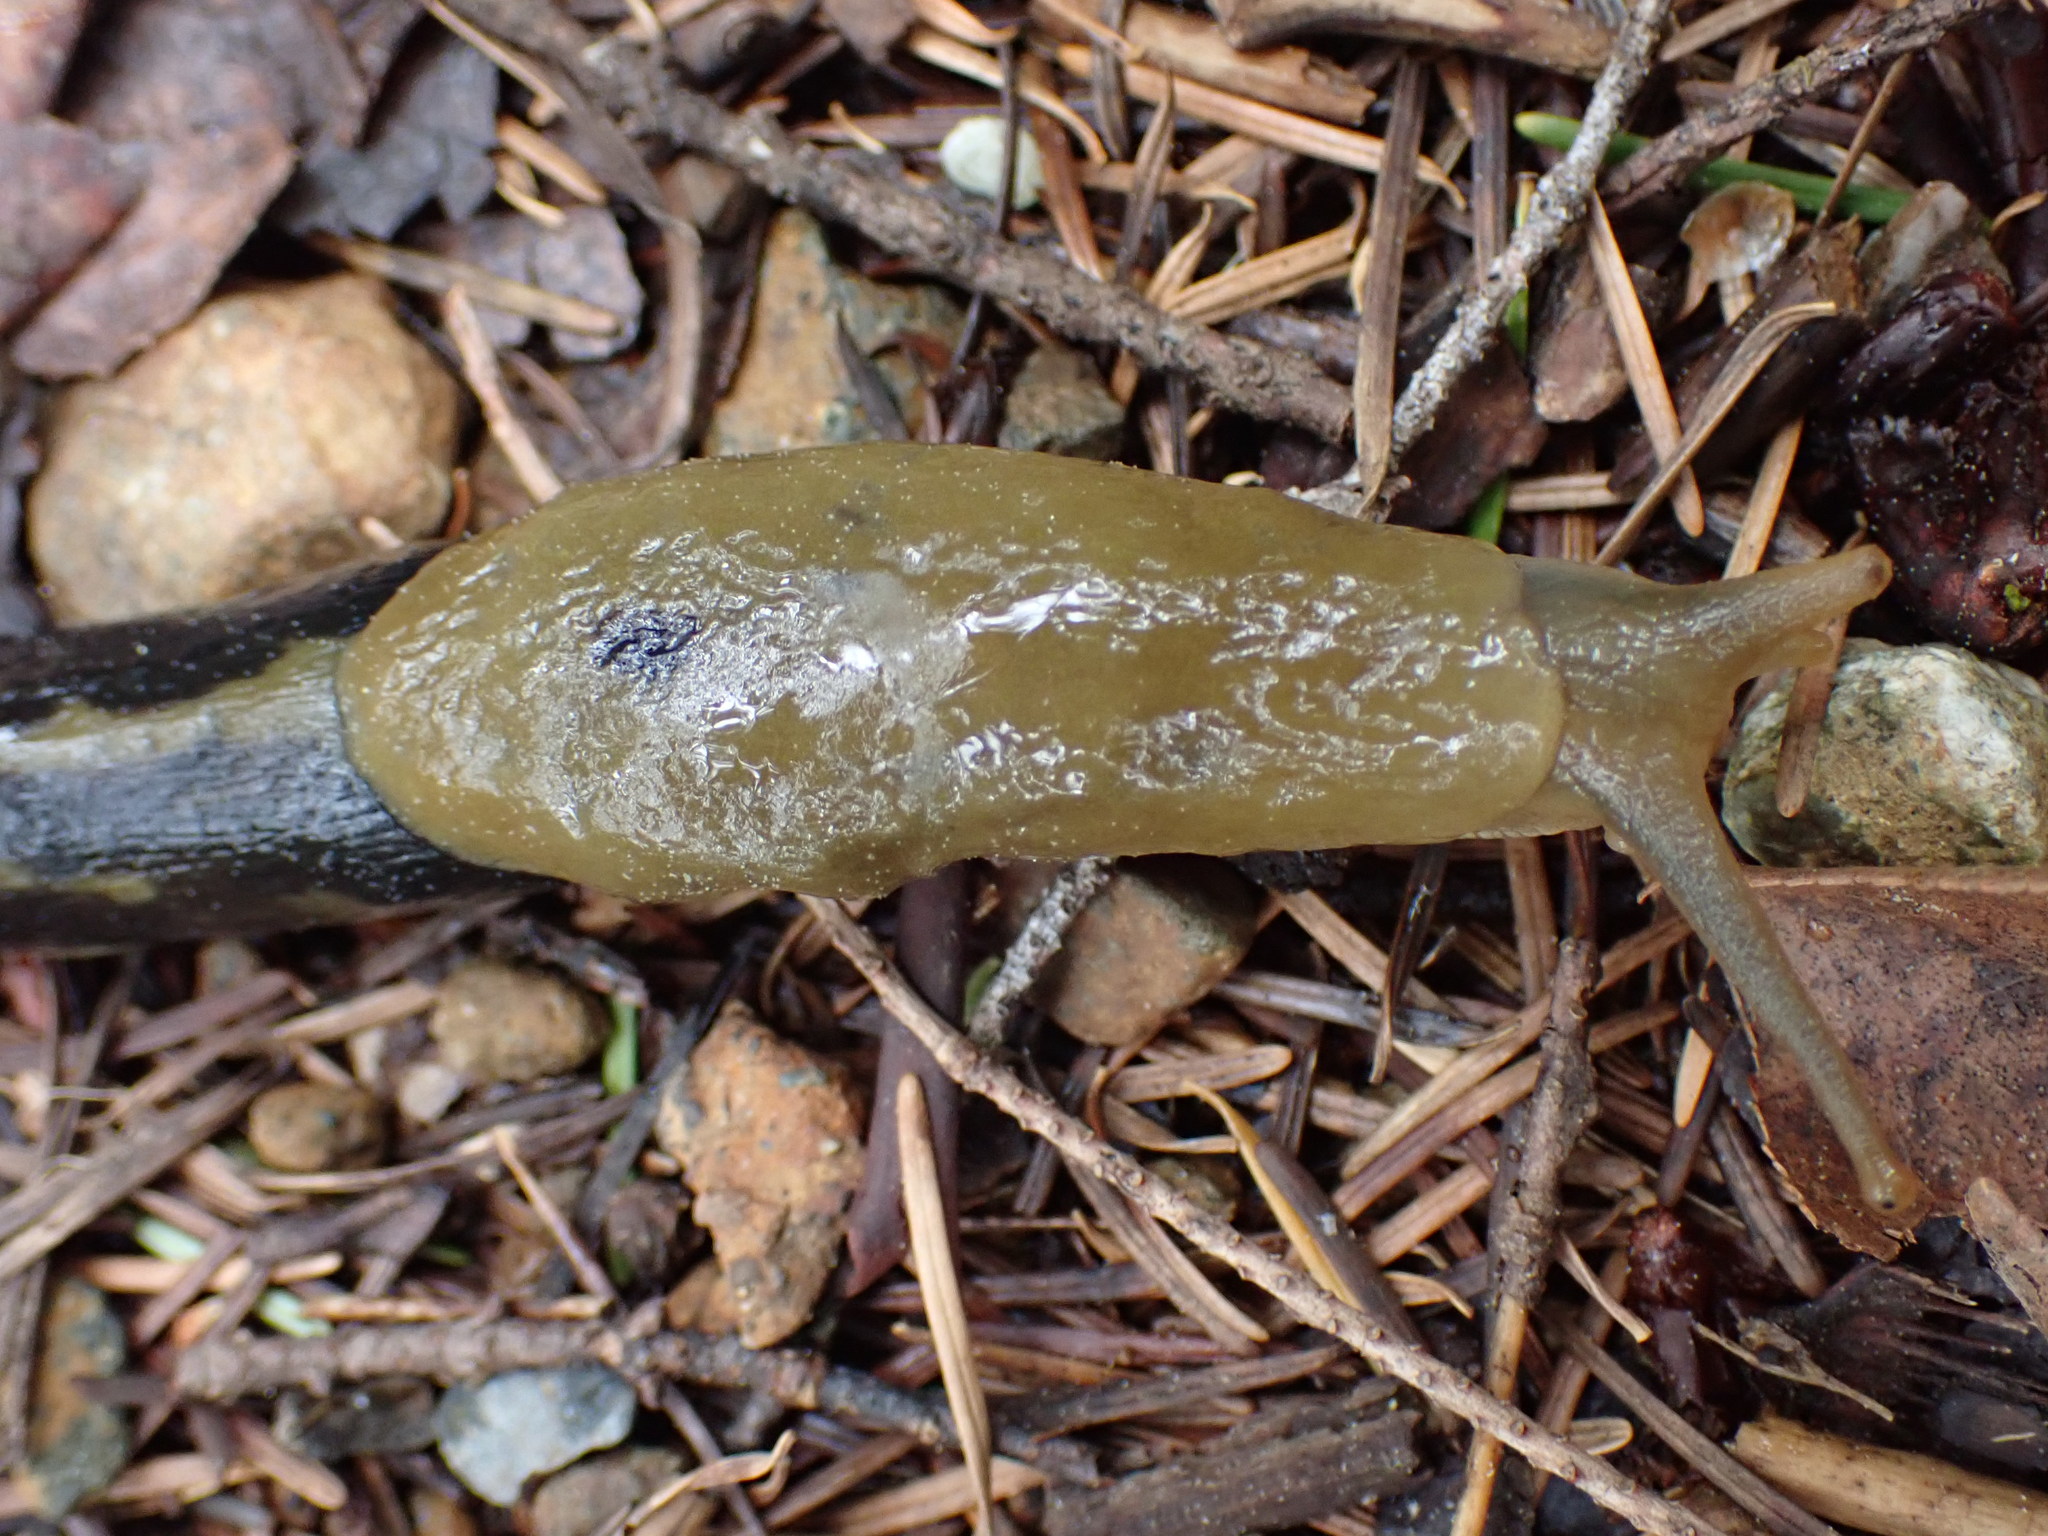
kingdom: Animalia
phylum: Mollusca
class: Gastropoda
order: Stylommatophora
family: Ariolimacidae
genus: Ariolimax
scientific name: Ariolimax columbianus
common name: Pacific banana slug
